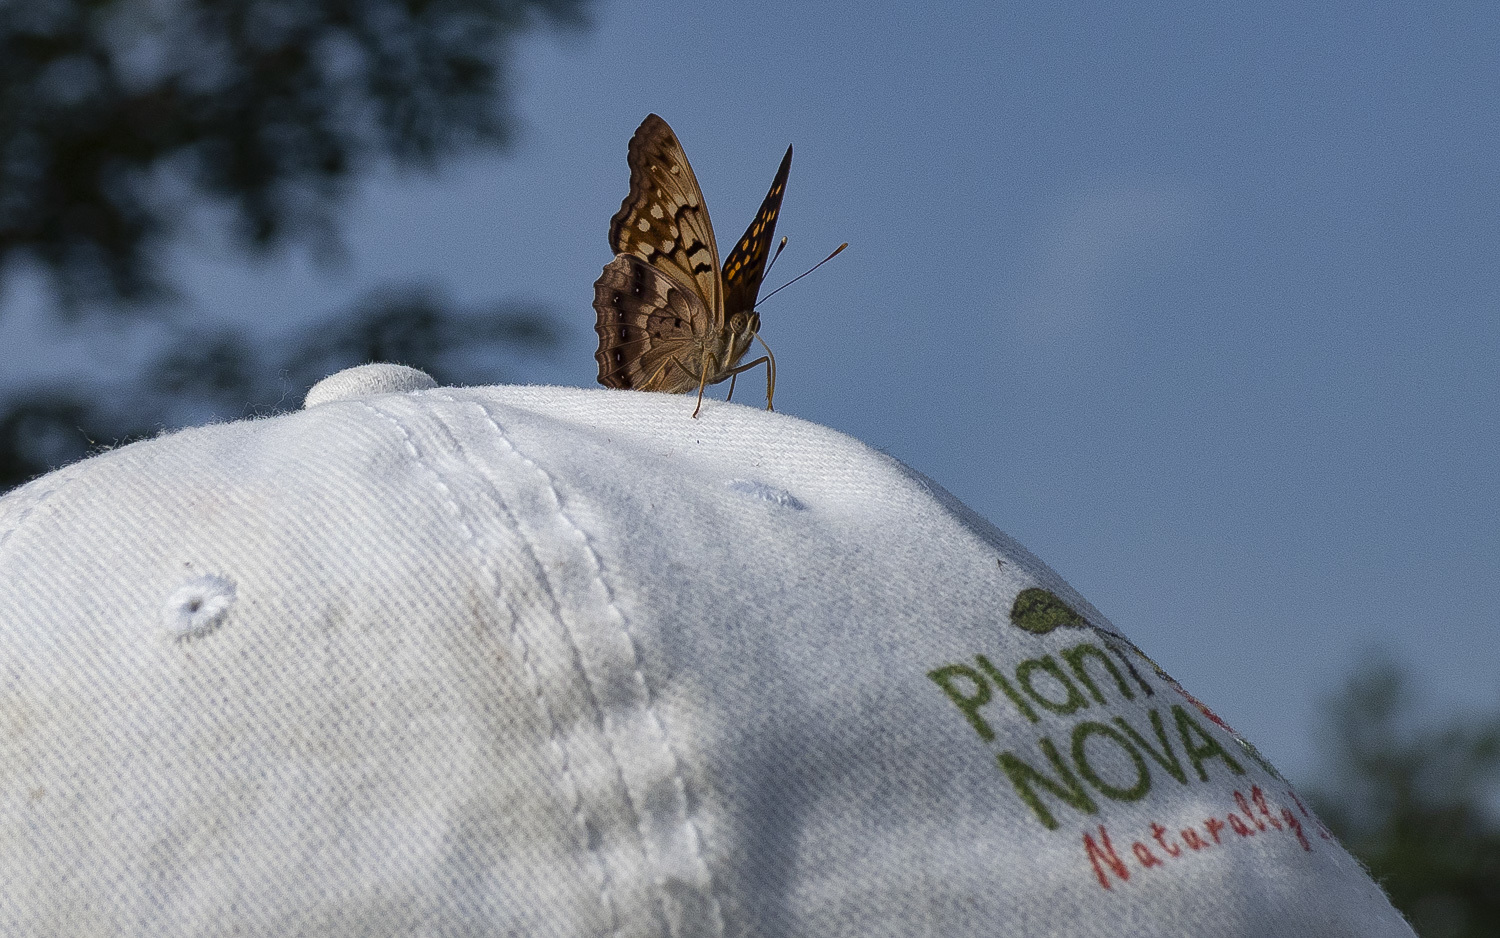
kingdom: Animalia
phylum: Arthropoda
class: Insecta
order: Lepidoptera
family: Nymphalidae
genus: Asterocampa
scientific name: Asterocampa clyton
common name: Tawny emperor
